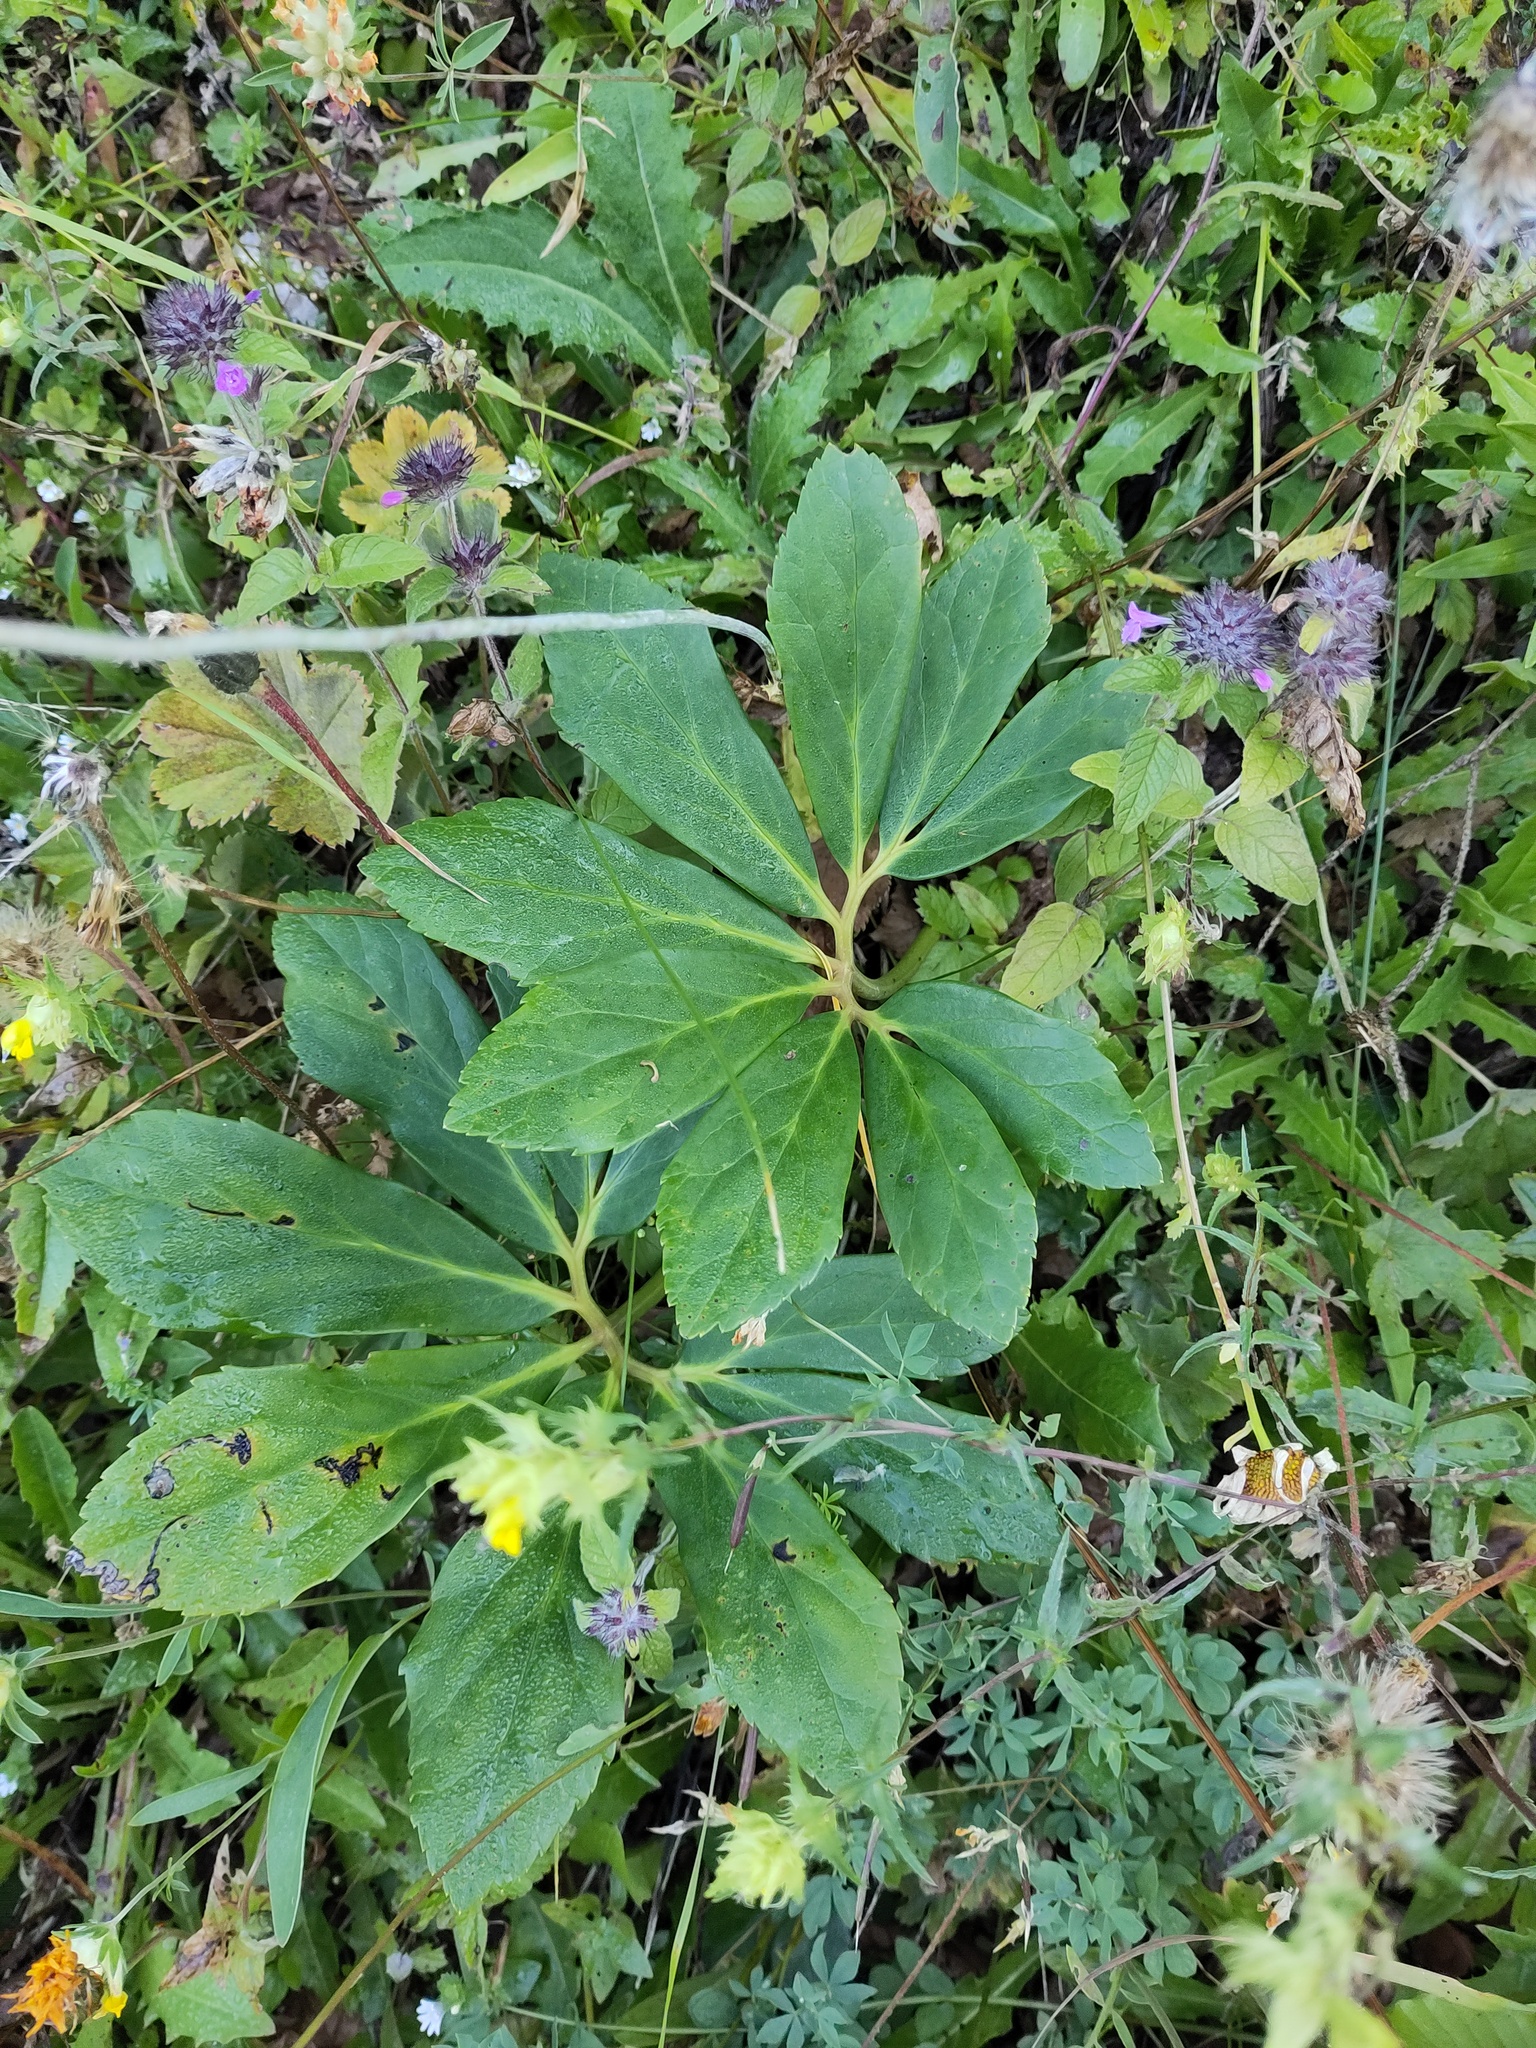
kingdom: Plantae
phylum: Tracheophyta
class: Magnoliopsida
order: Ranunculales
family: Ranunculaceae
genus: Helleborus
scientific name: Helleborus niger
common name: Black hellebore
